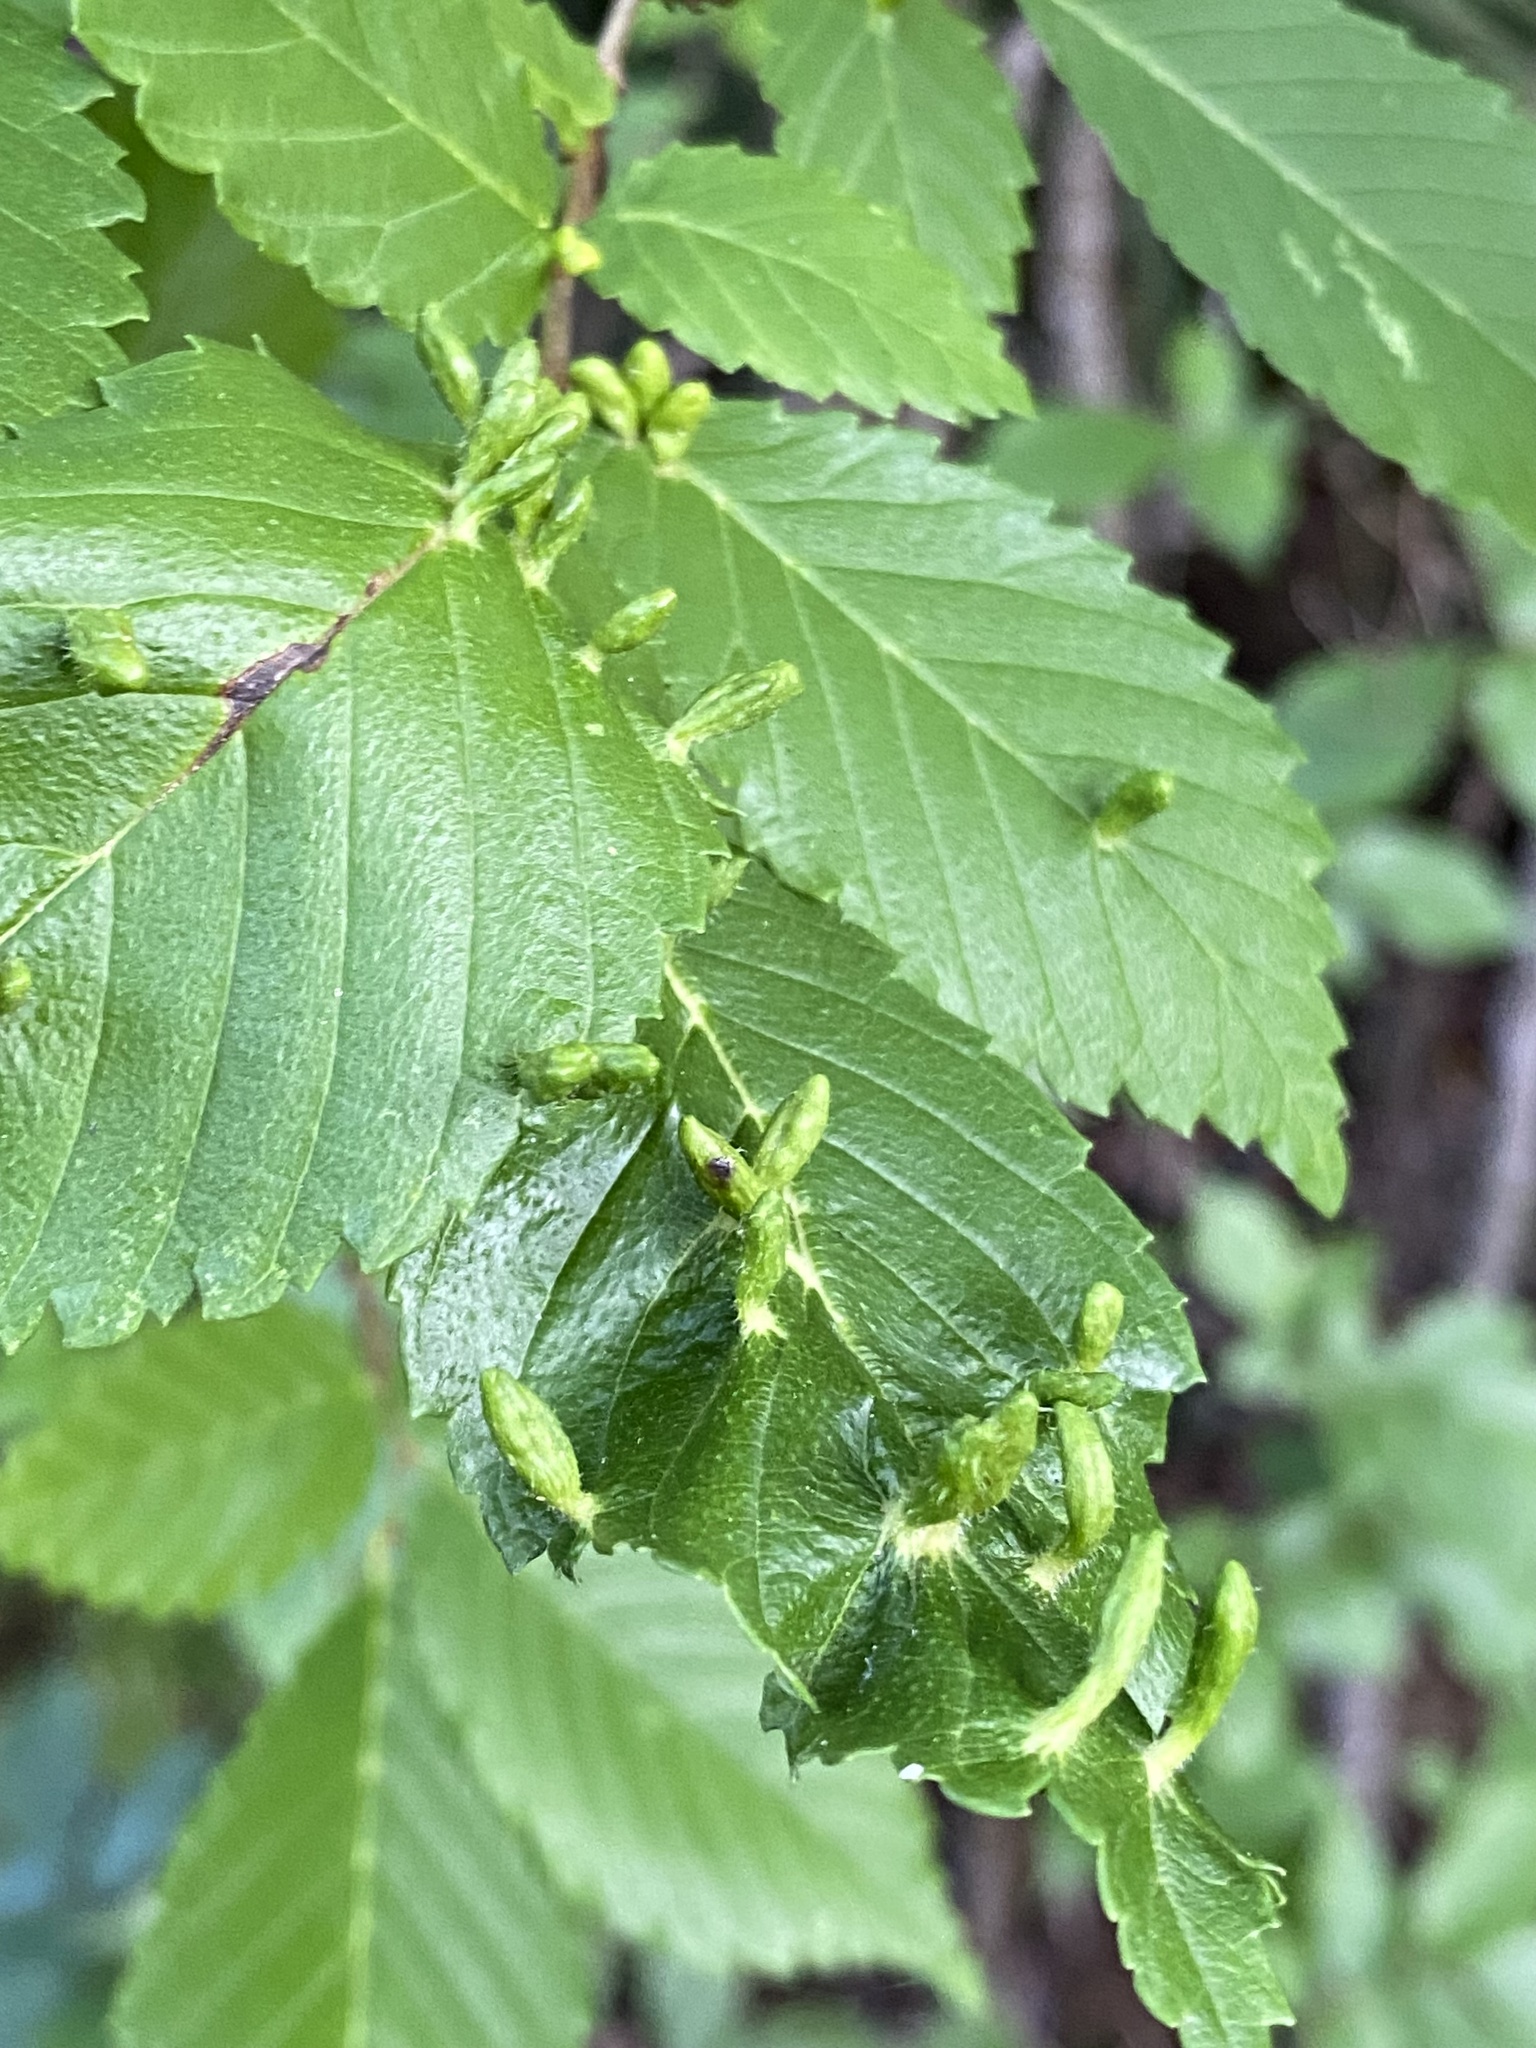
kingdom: Animalia
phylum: Arthropoda
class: Arachnida
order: Trombidiformes
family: Eriophyidae
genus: Aceria
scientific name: Aceria
